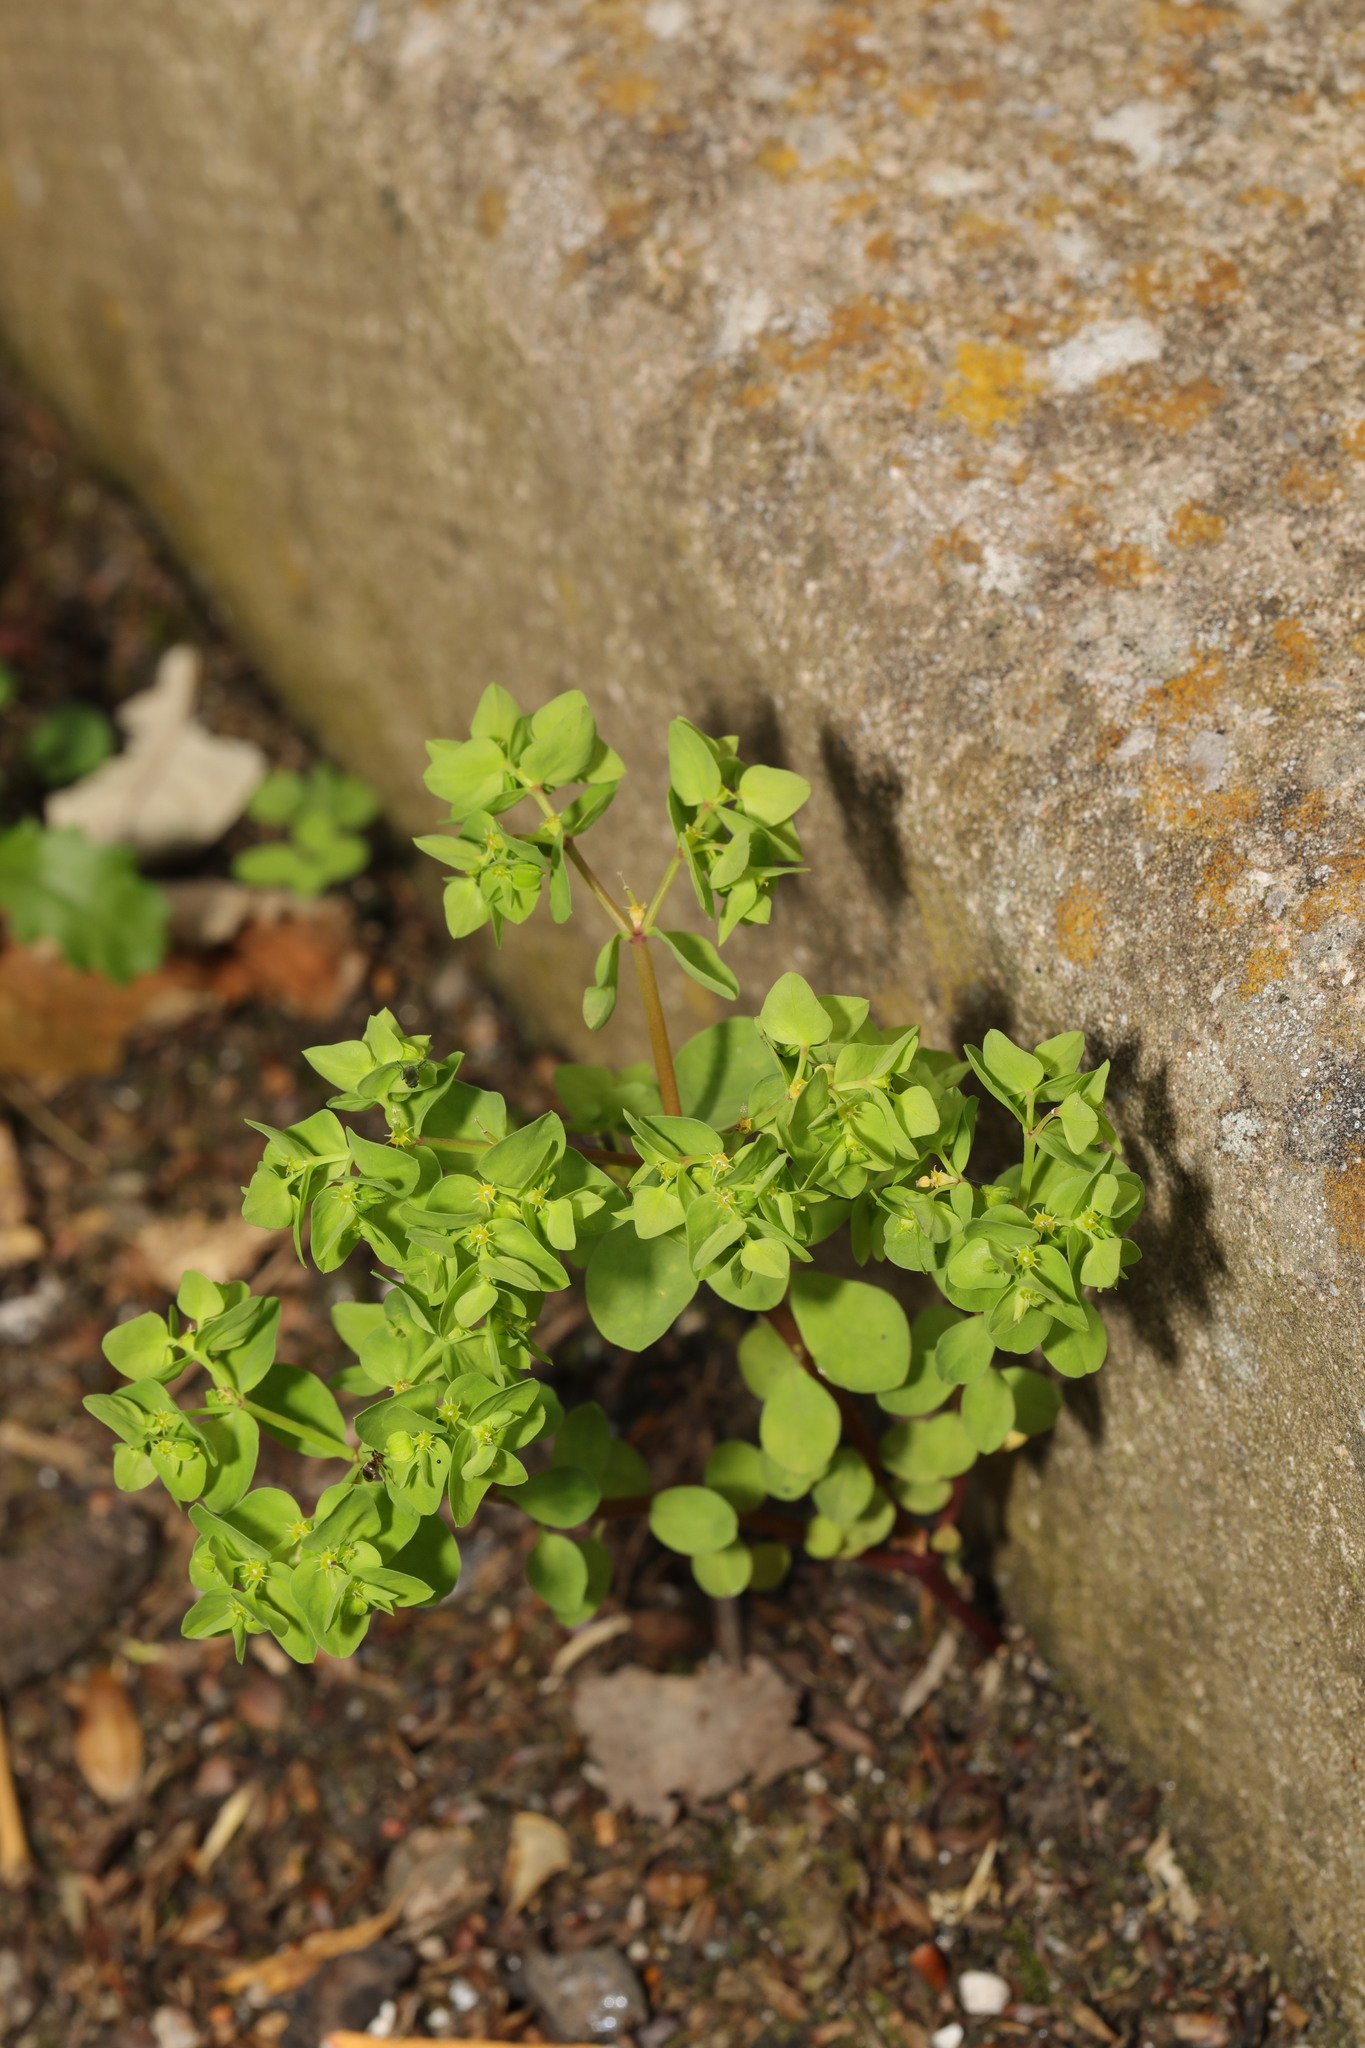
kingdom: Plantae
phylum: Tracheophyta
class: Magnoliopsida
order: Malpighiales
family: Euphorbiaceae
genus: Euphorbia
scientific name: Euphorbia peplus
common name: Petty spurge
